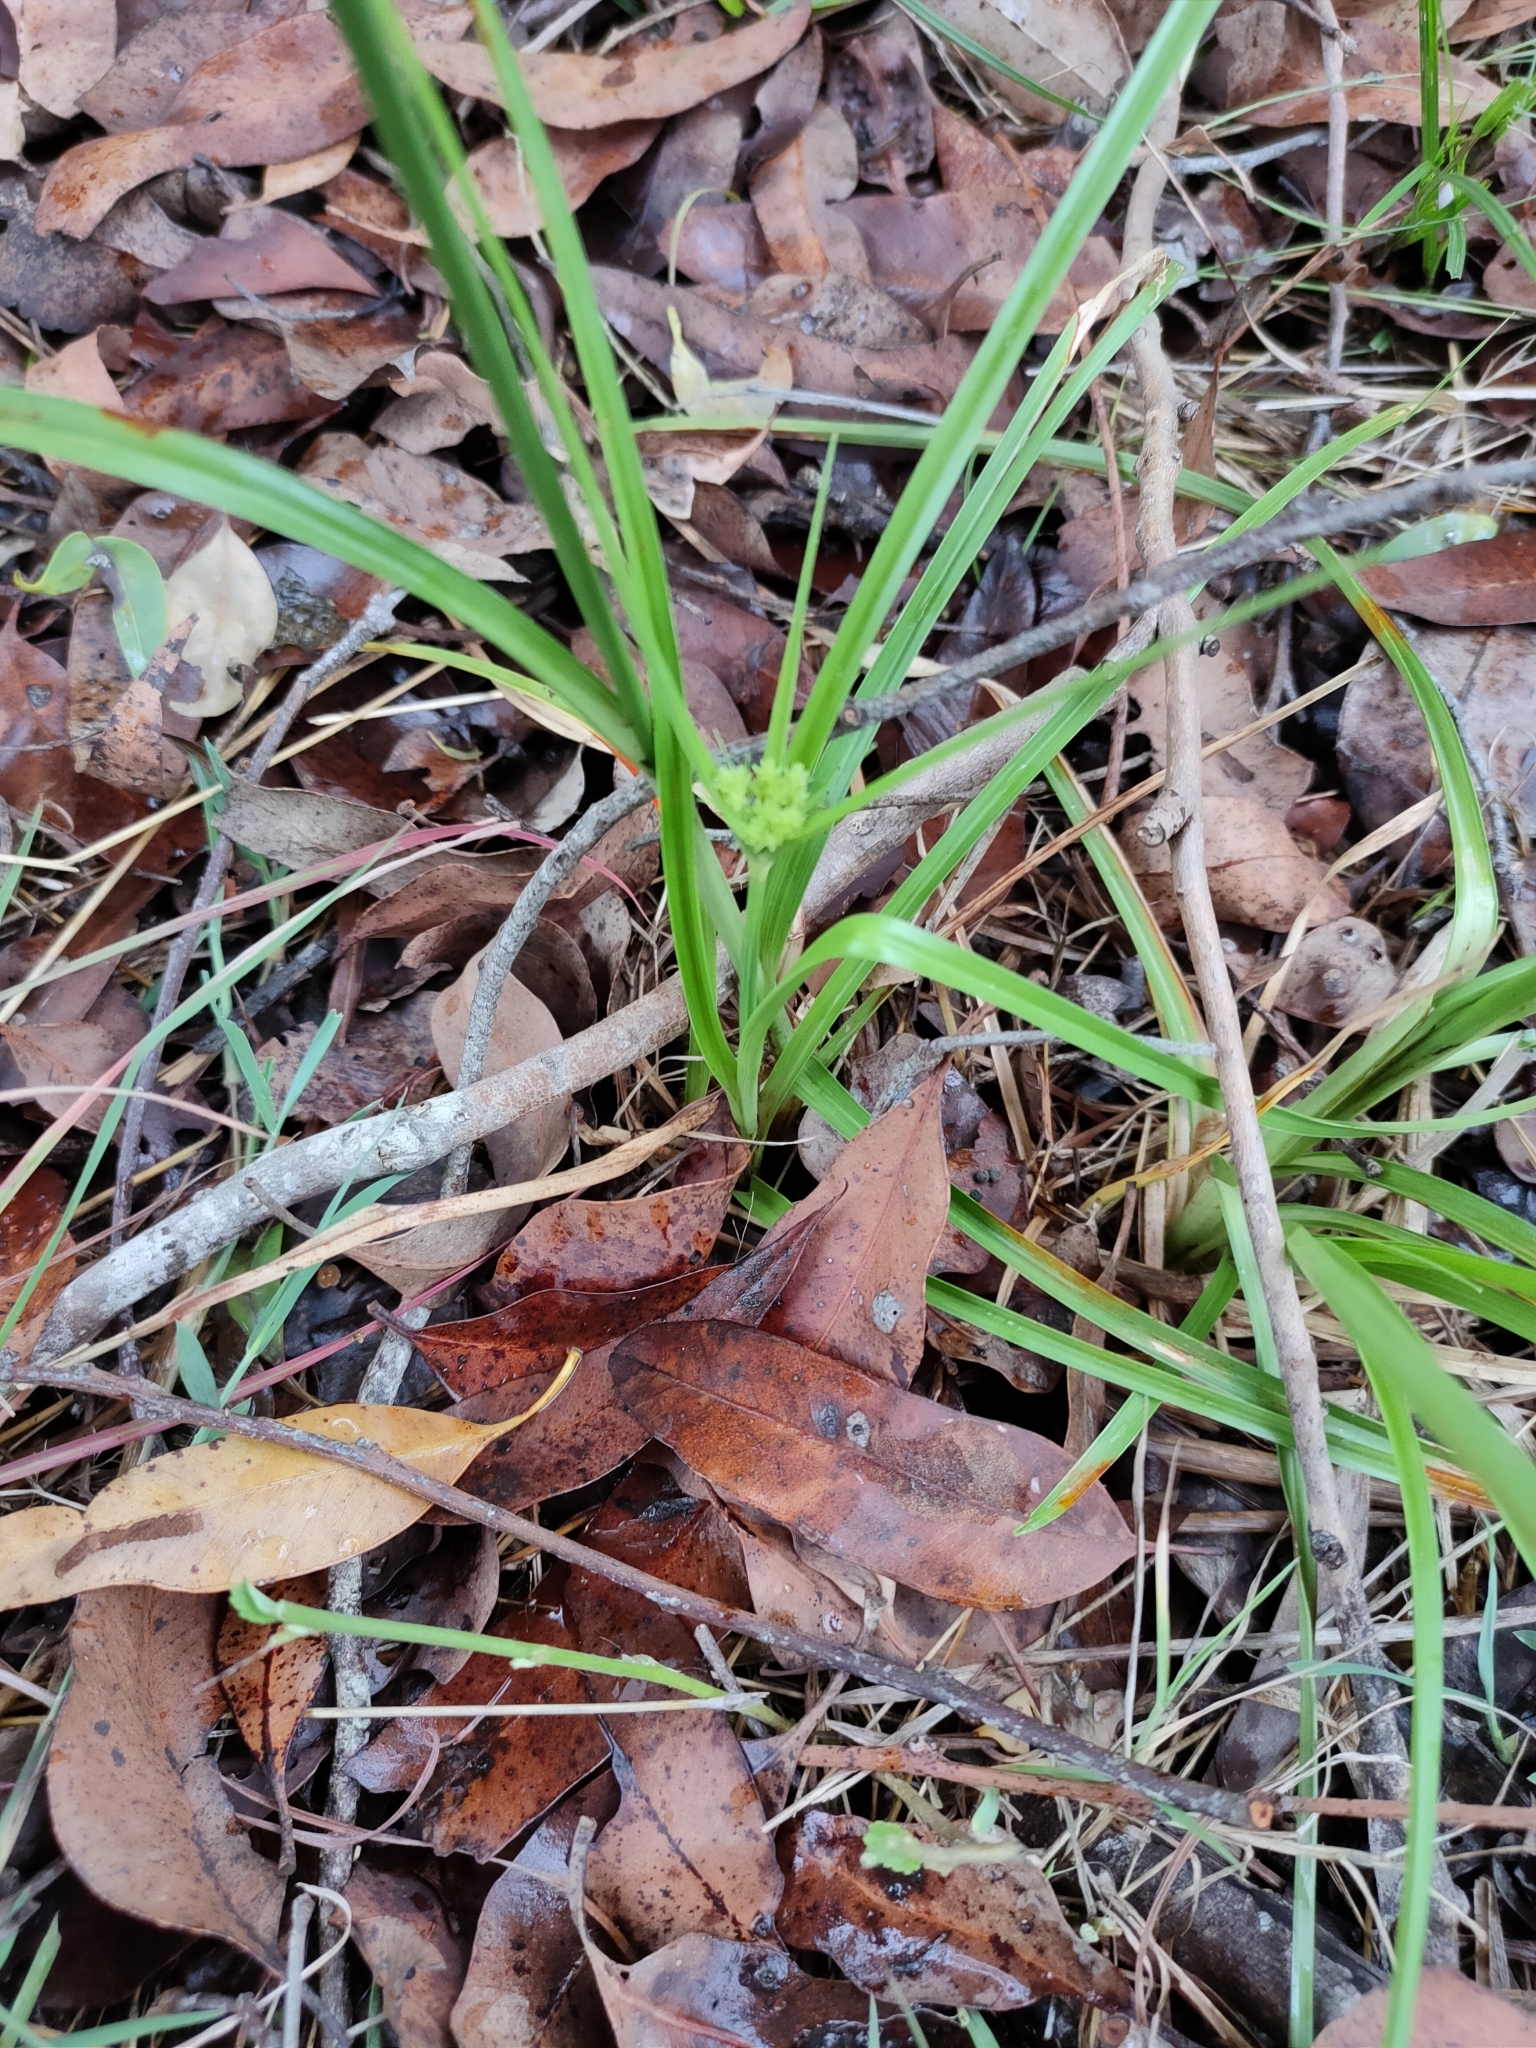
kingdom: Plantae
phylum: Tracheophyta
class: Liliopsida
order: Poales
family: Cyperaceae
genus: Cyperus
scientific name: Cyperus fulvus
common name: Sticky sedge
